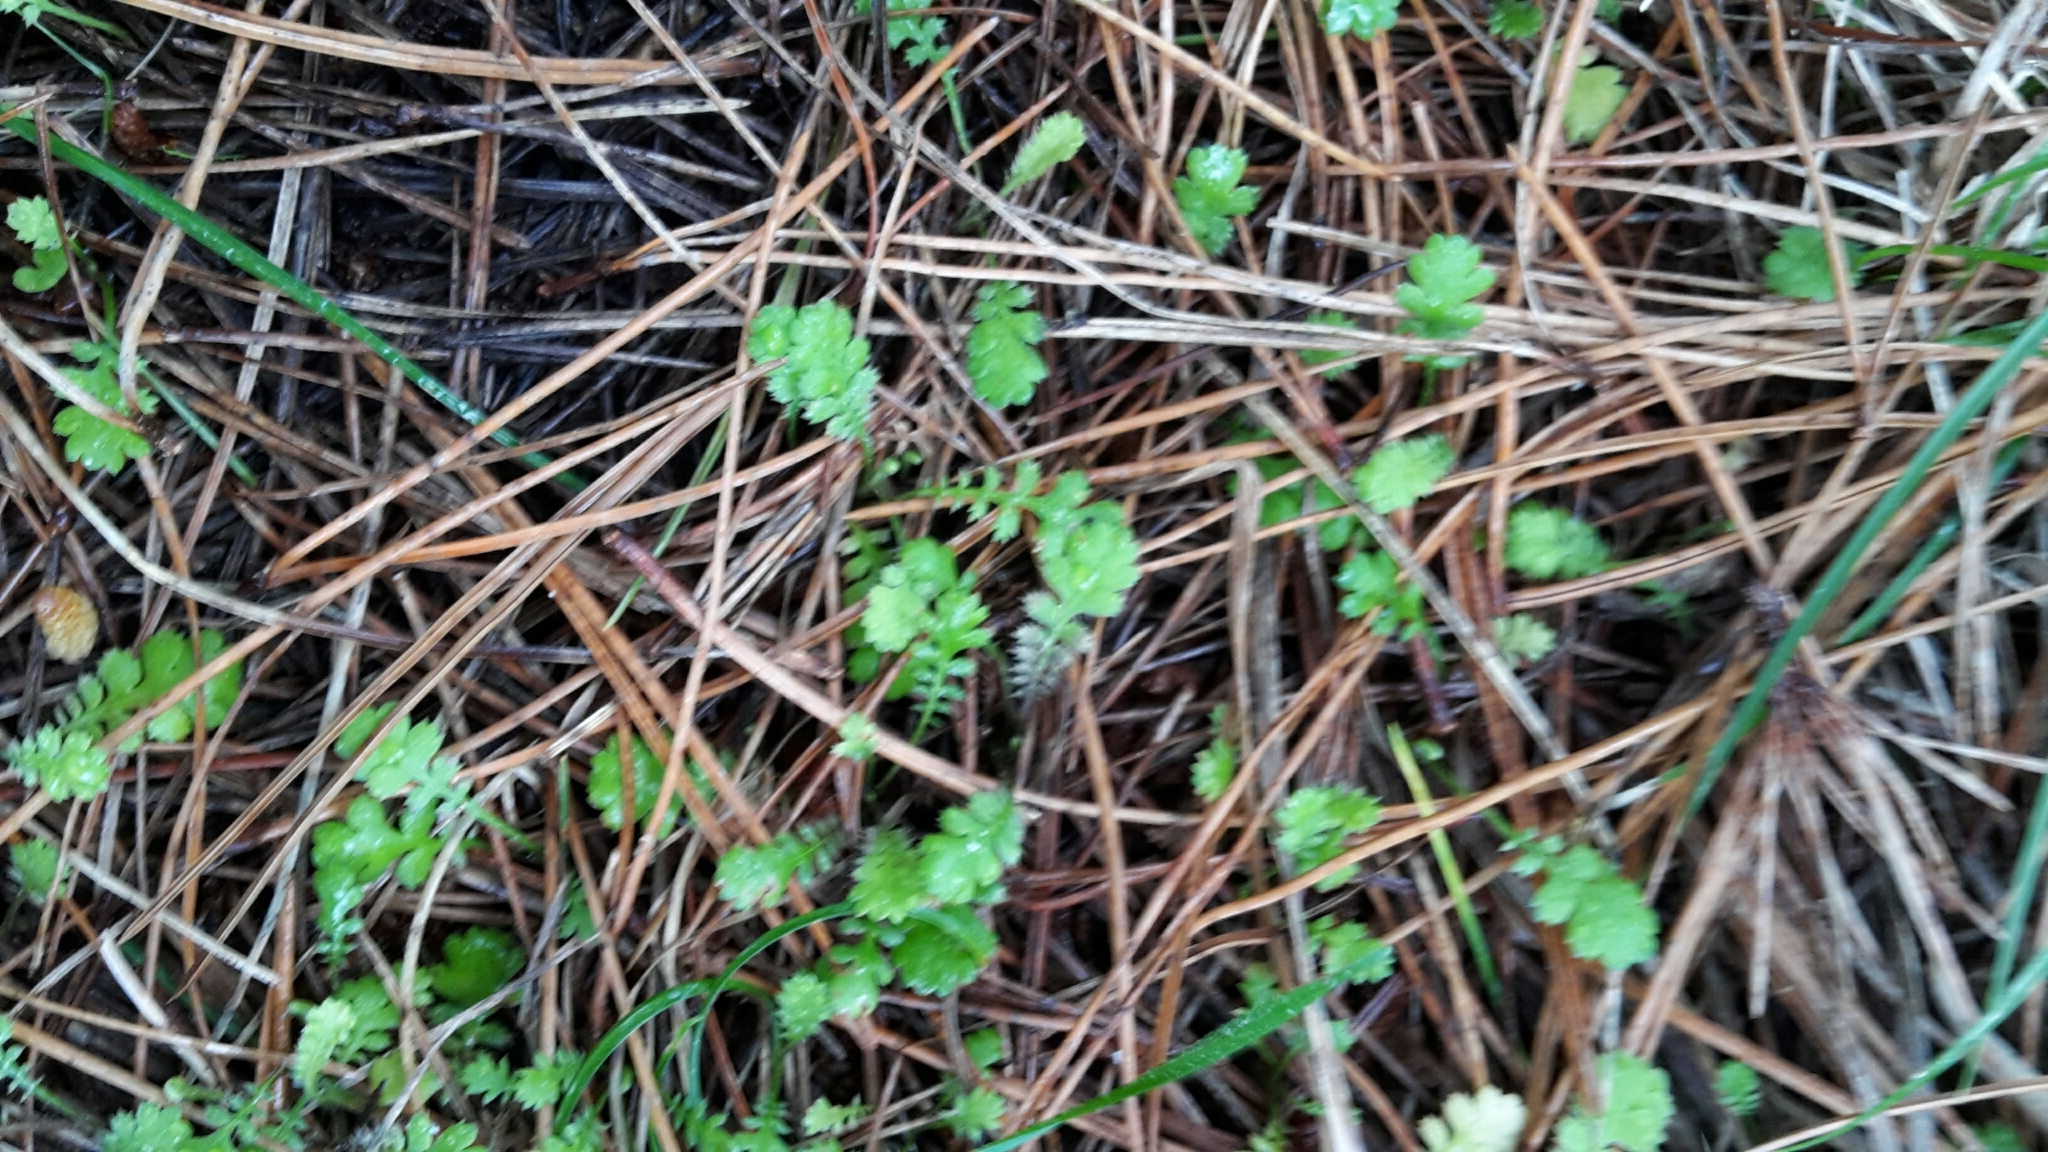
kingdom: Plantae
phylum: Tracheophyta
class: Magnoliopsida
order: Asterales
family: Asteraceae
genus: Leptinella
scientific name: Leptinella squalida
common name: New zealand brass-buttons
